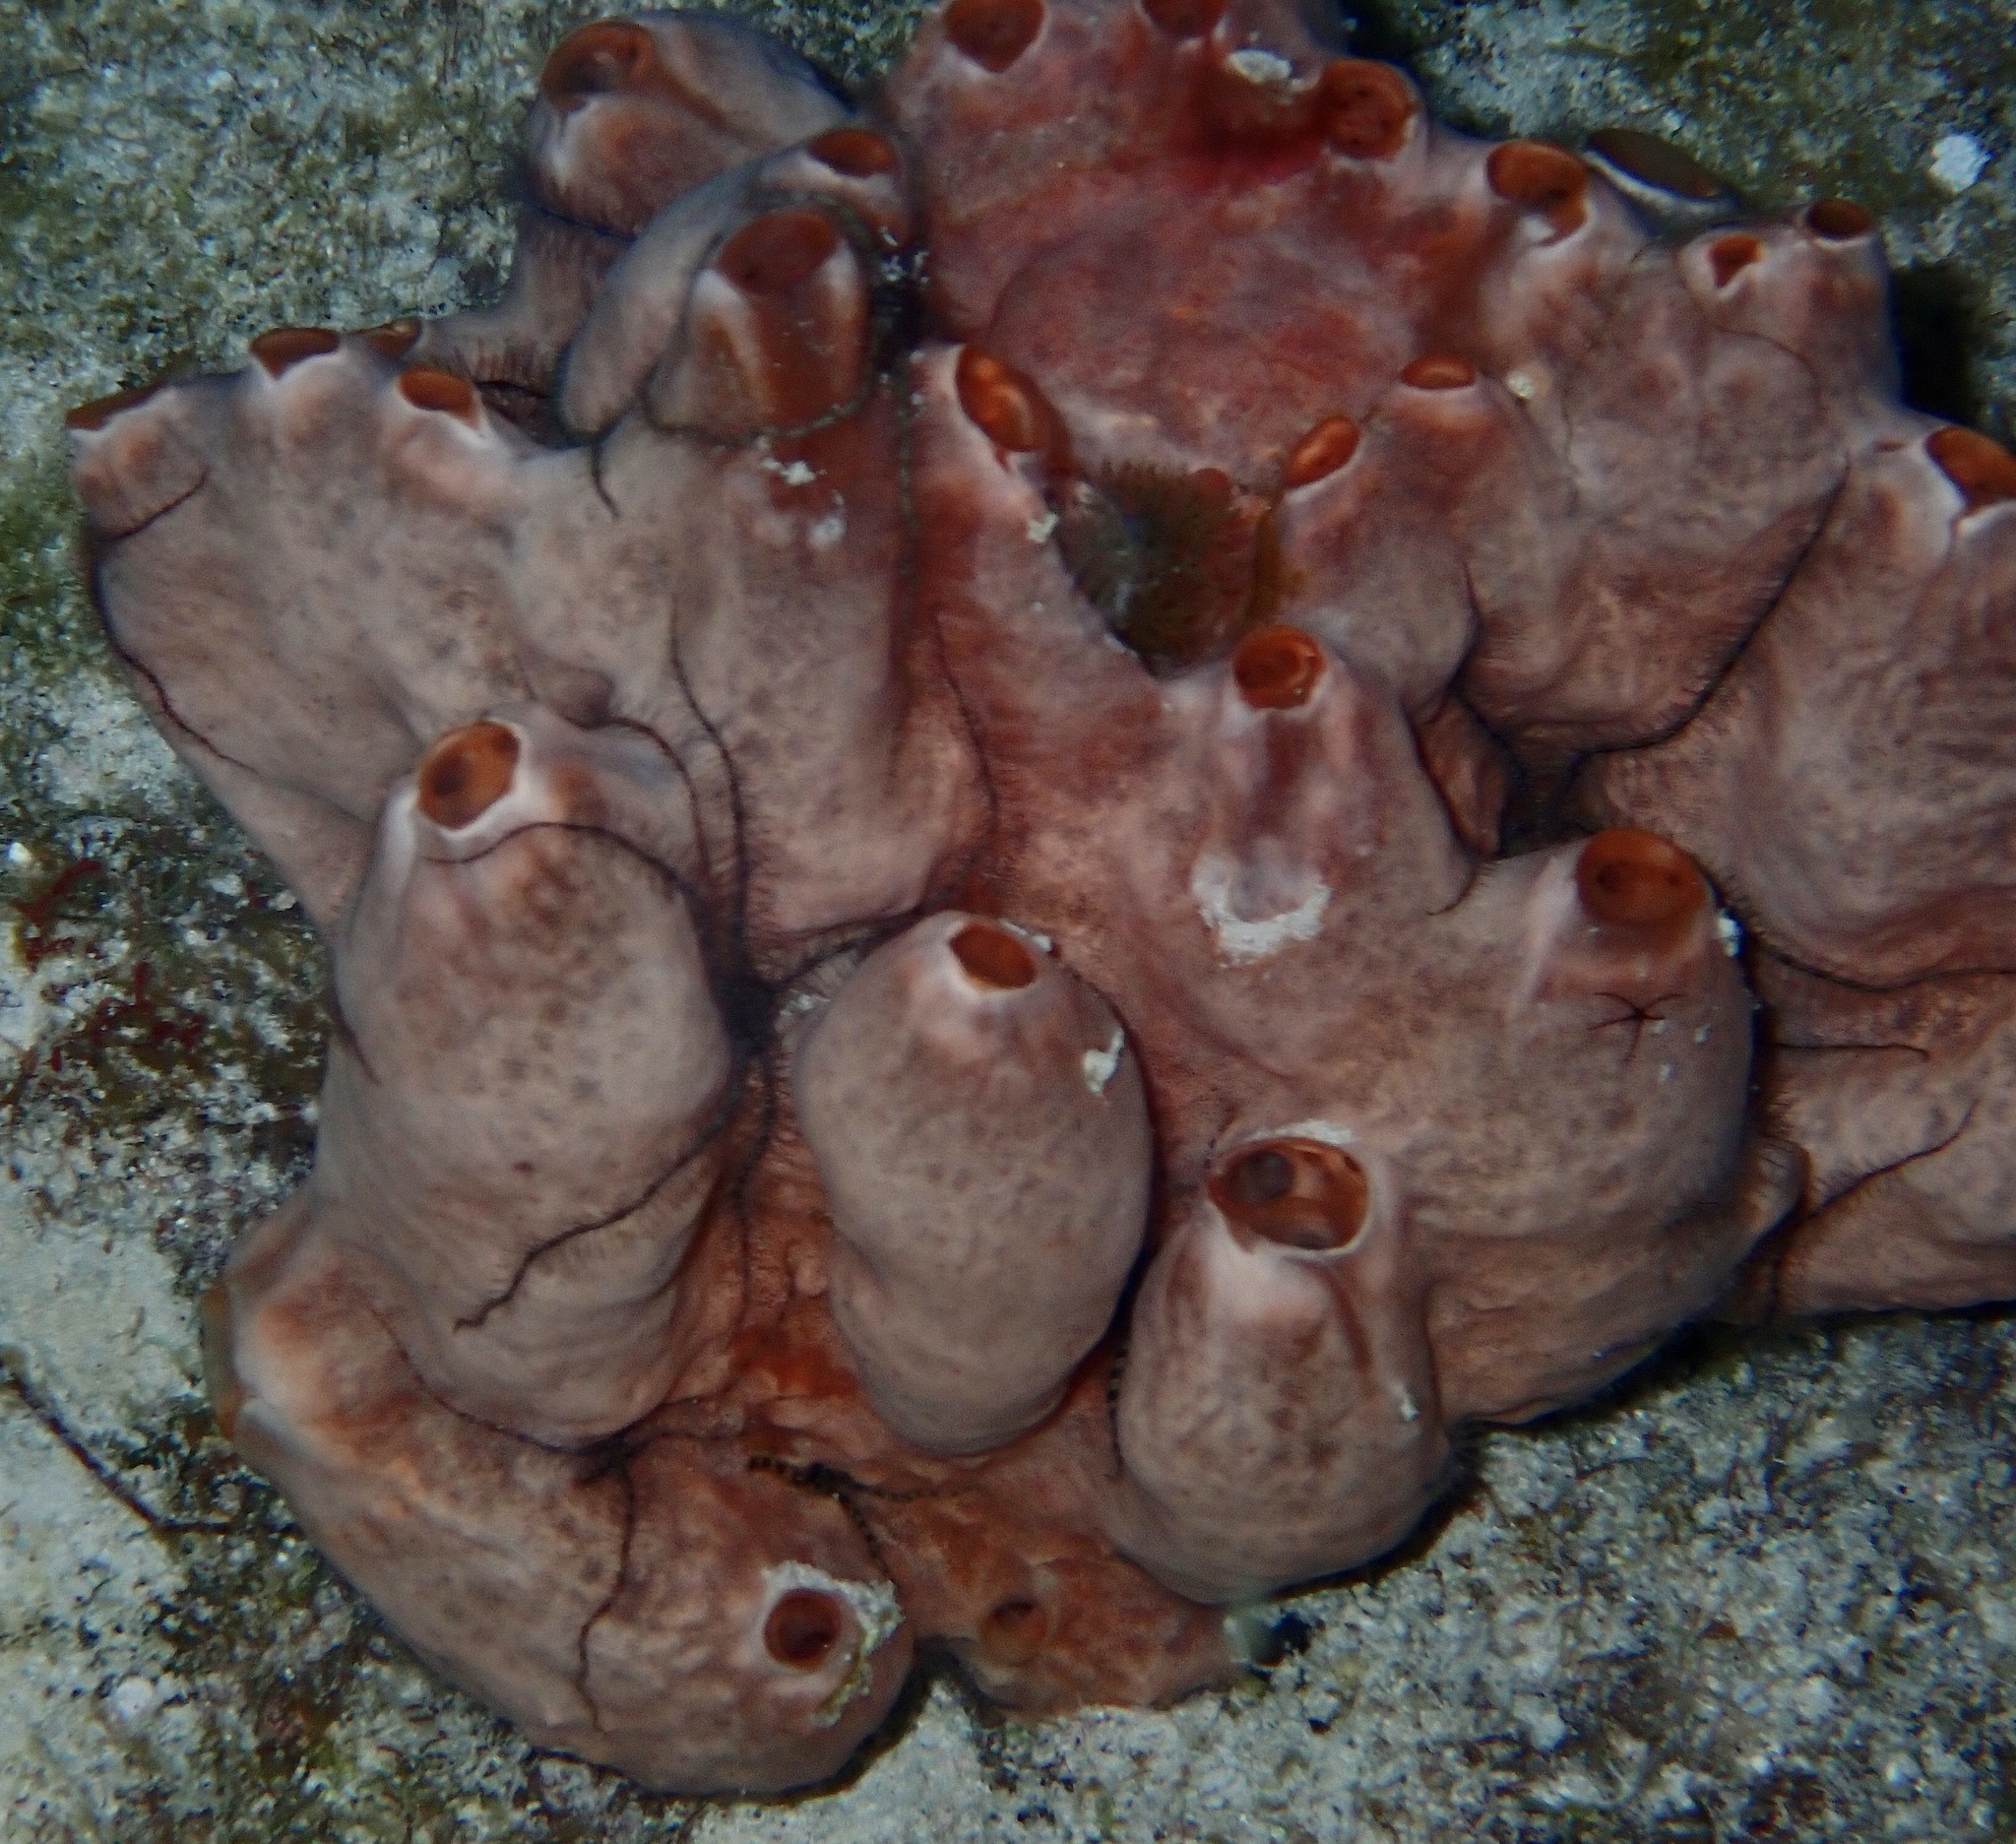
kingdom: Animalia
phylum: Porifera
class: Demospongiae
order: Poecilosclerida
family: Desmacididae
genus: Desmapsamma
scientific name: Desmapsamma anchorata
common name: Lumpy overgrowing sponge
